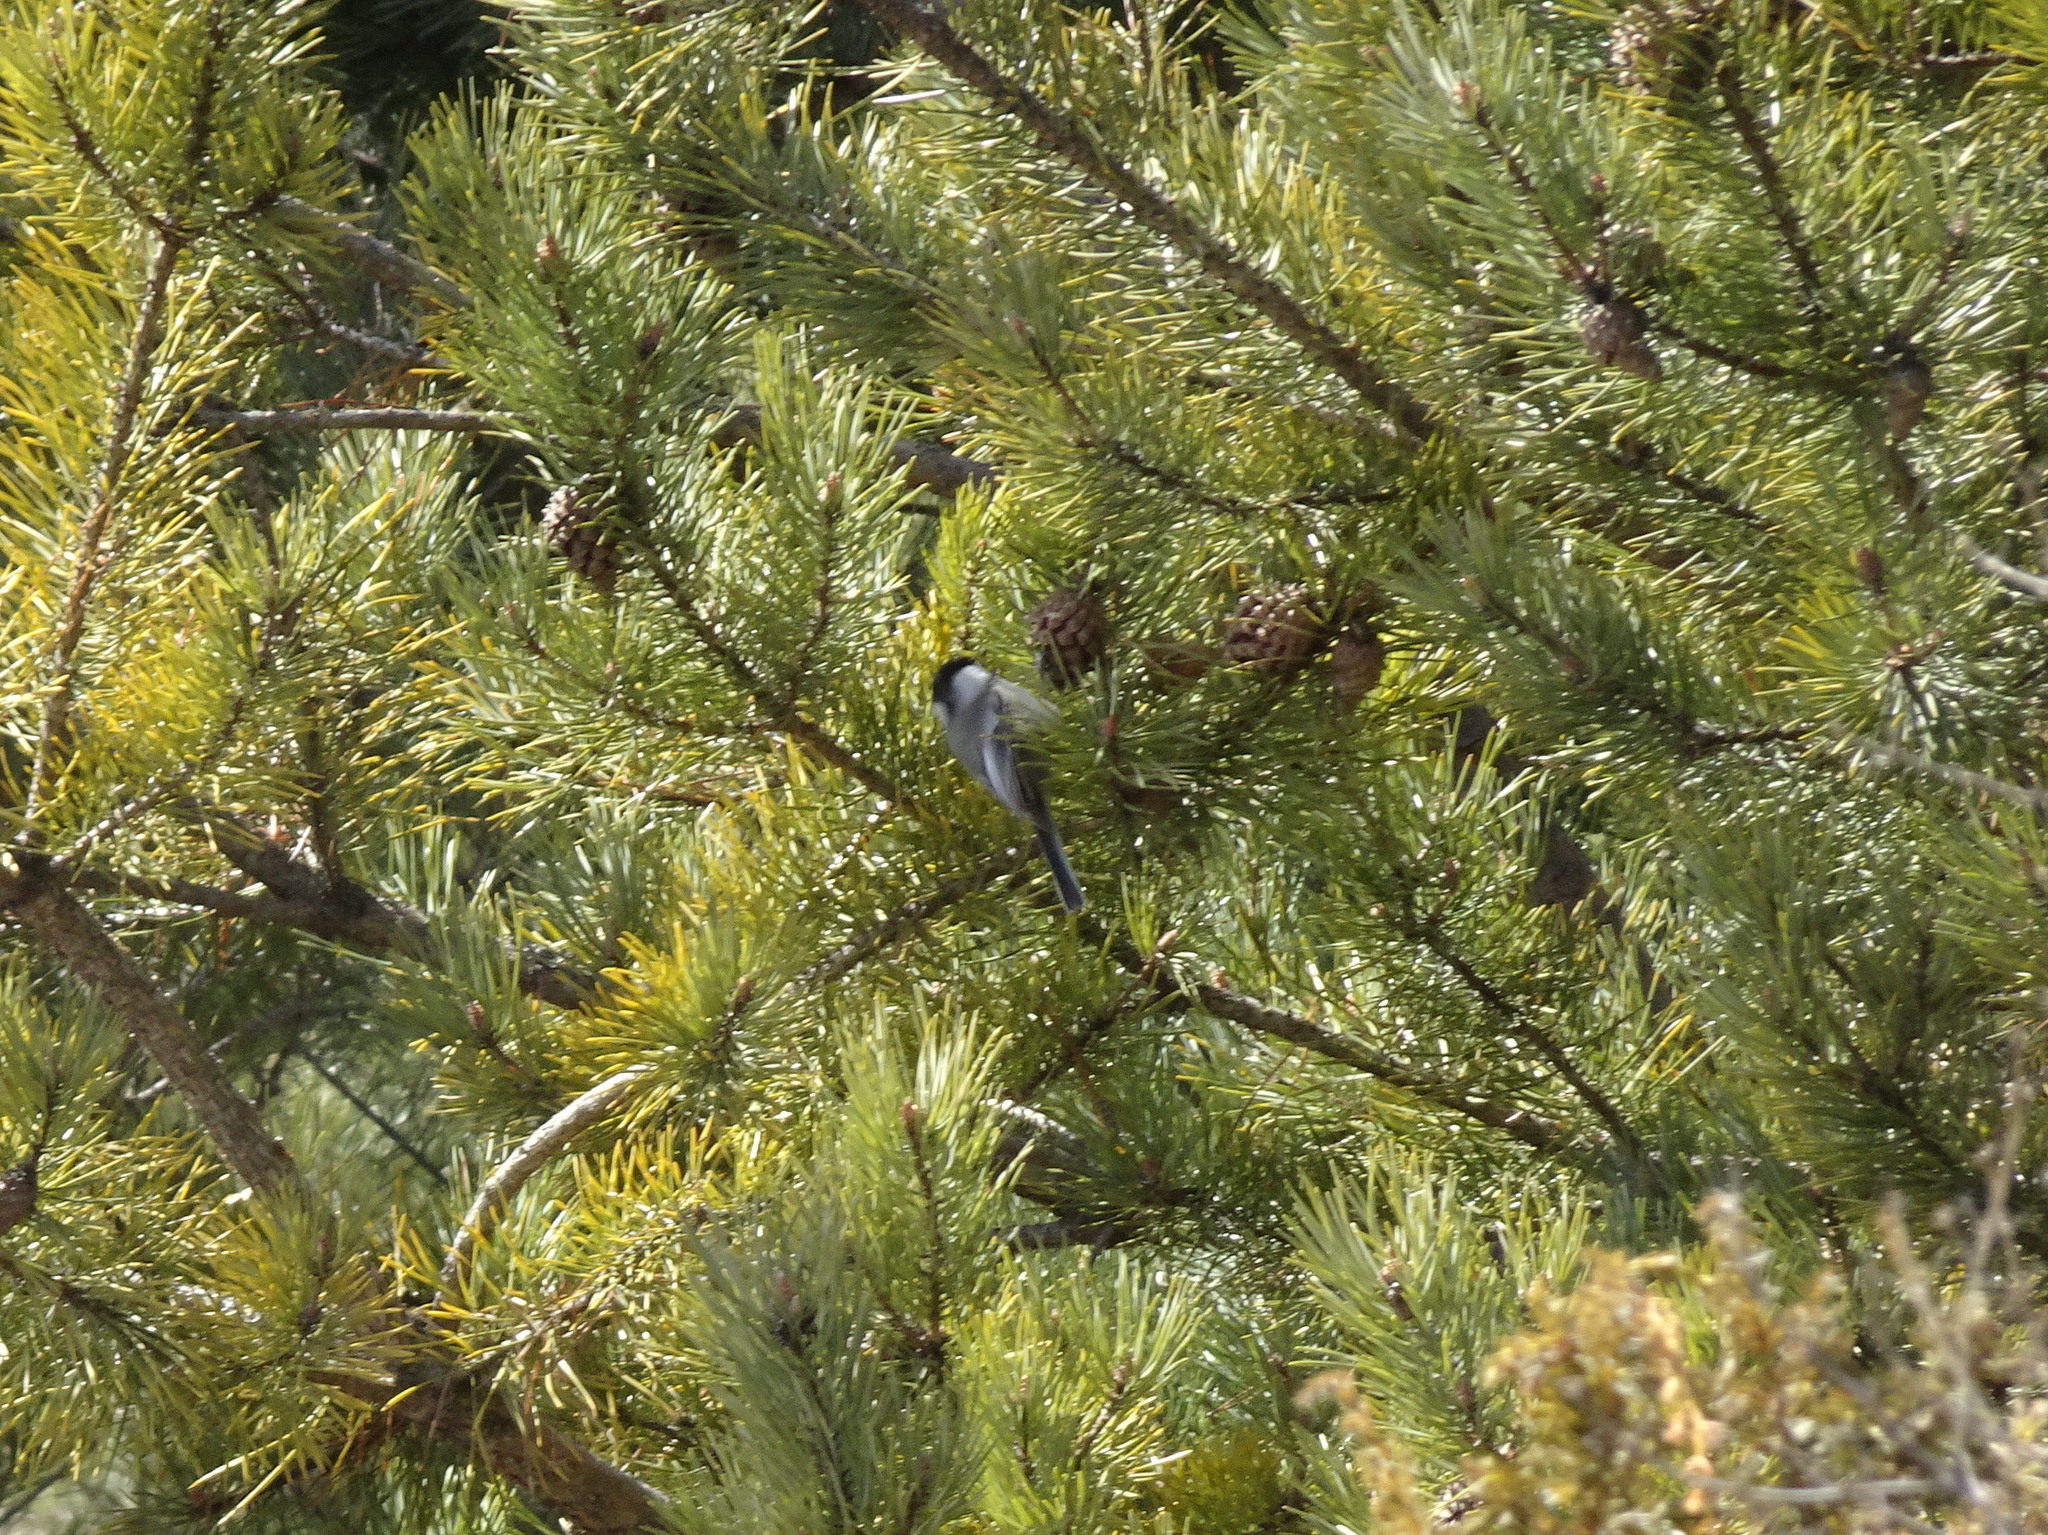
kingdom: Animalia
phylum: Chordata
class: Aves
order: Passeriformes
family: Paridae
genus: Poecile
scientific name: Poecile atricapillus
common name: Black-capped chickadee
